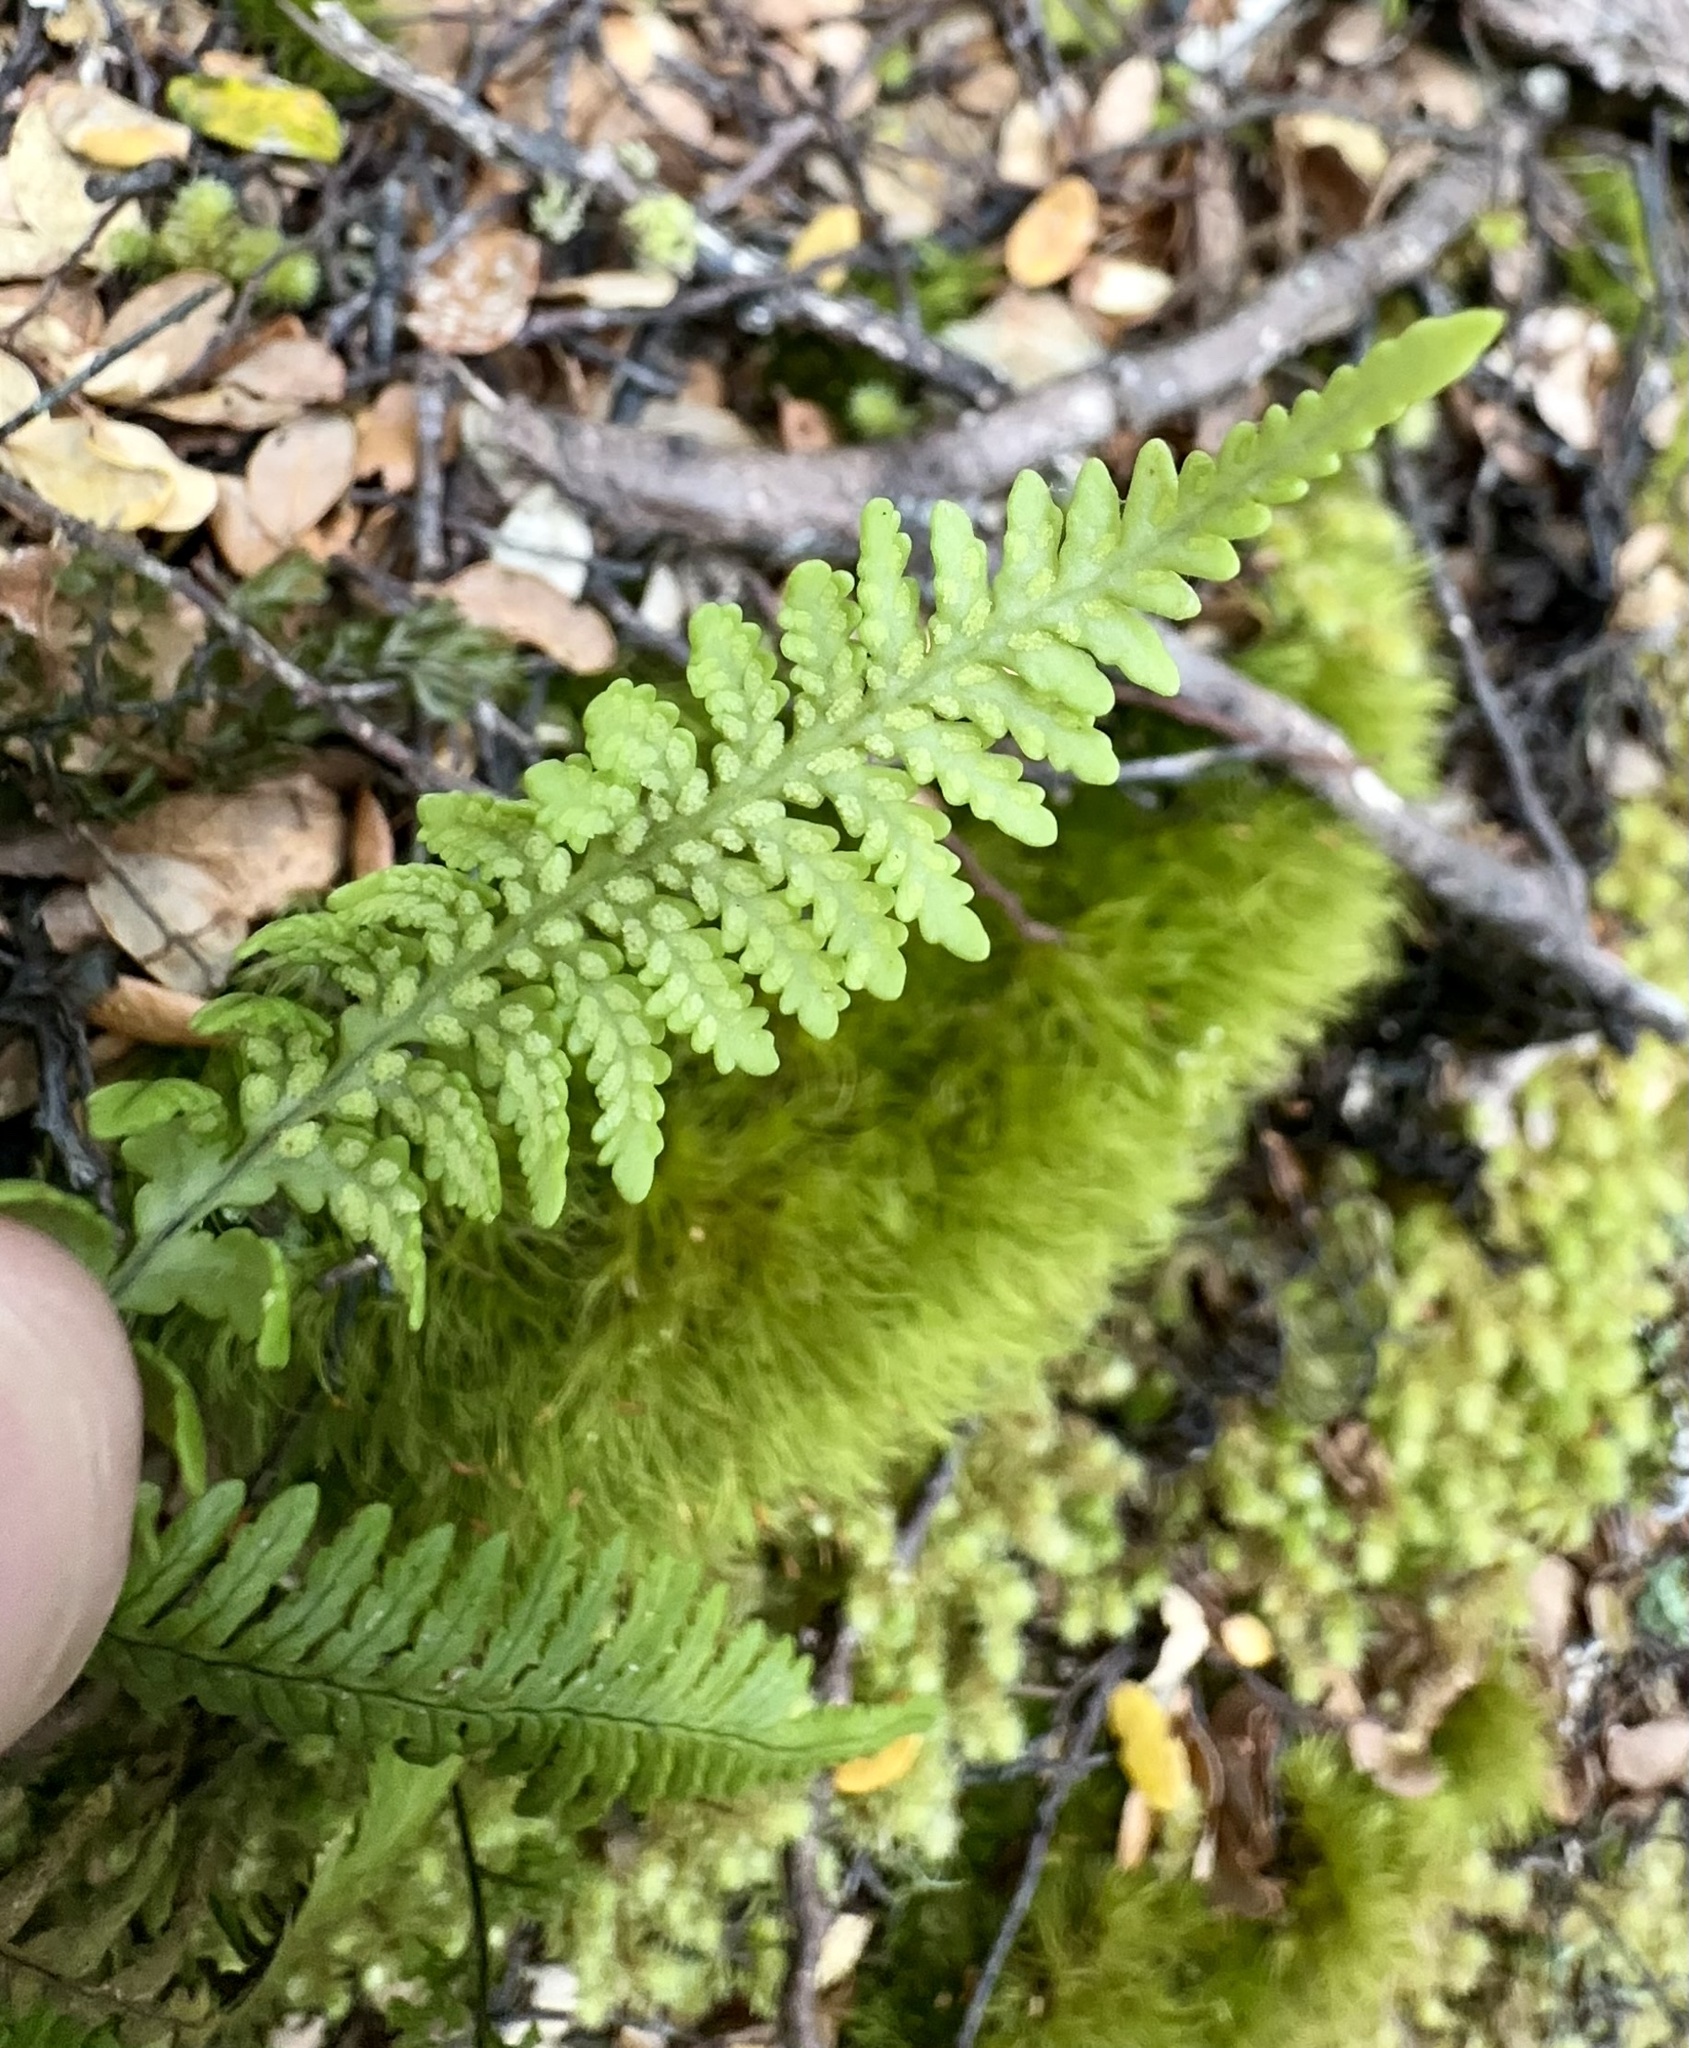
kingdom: Plantae
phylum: Tracheophyta
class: Polypodiopsida
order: Polypodiales
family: Polypodiaceae
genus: Notogrammitis
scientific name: Notogrammitis heterophylla
